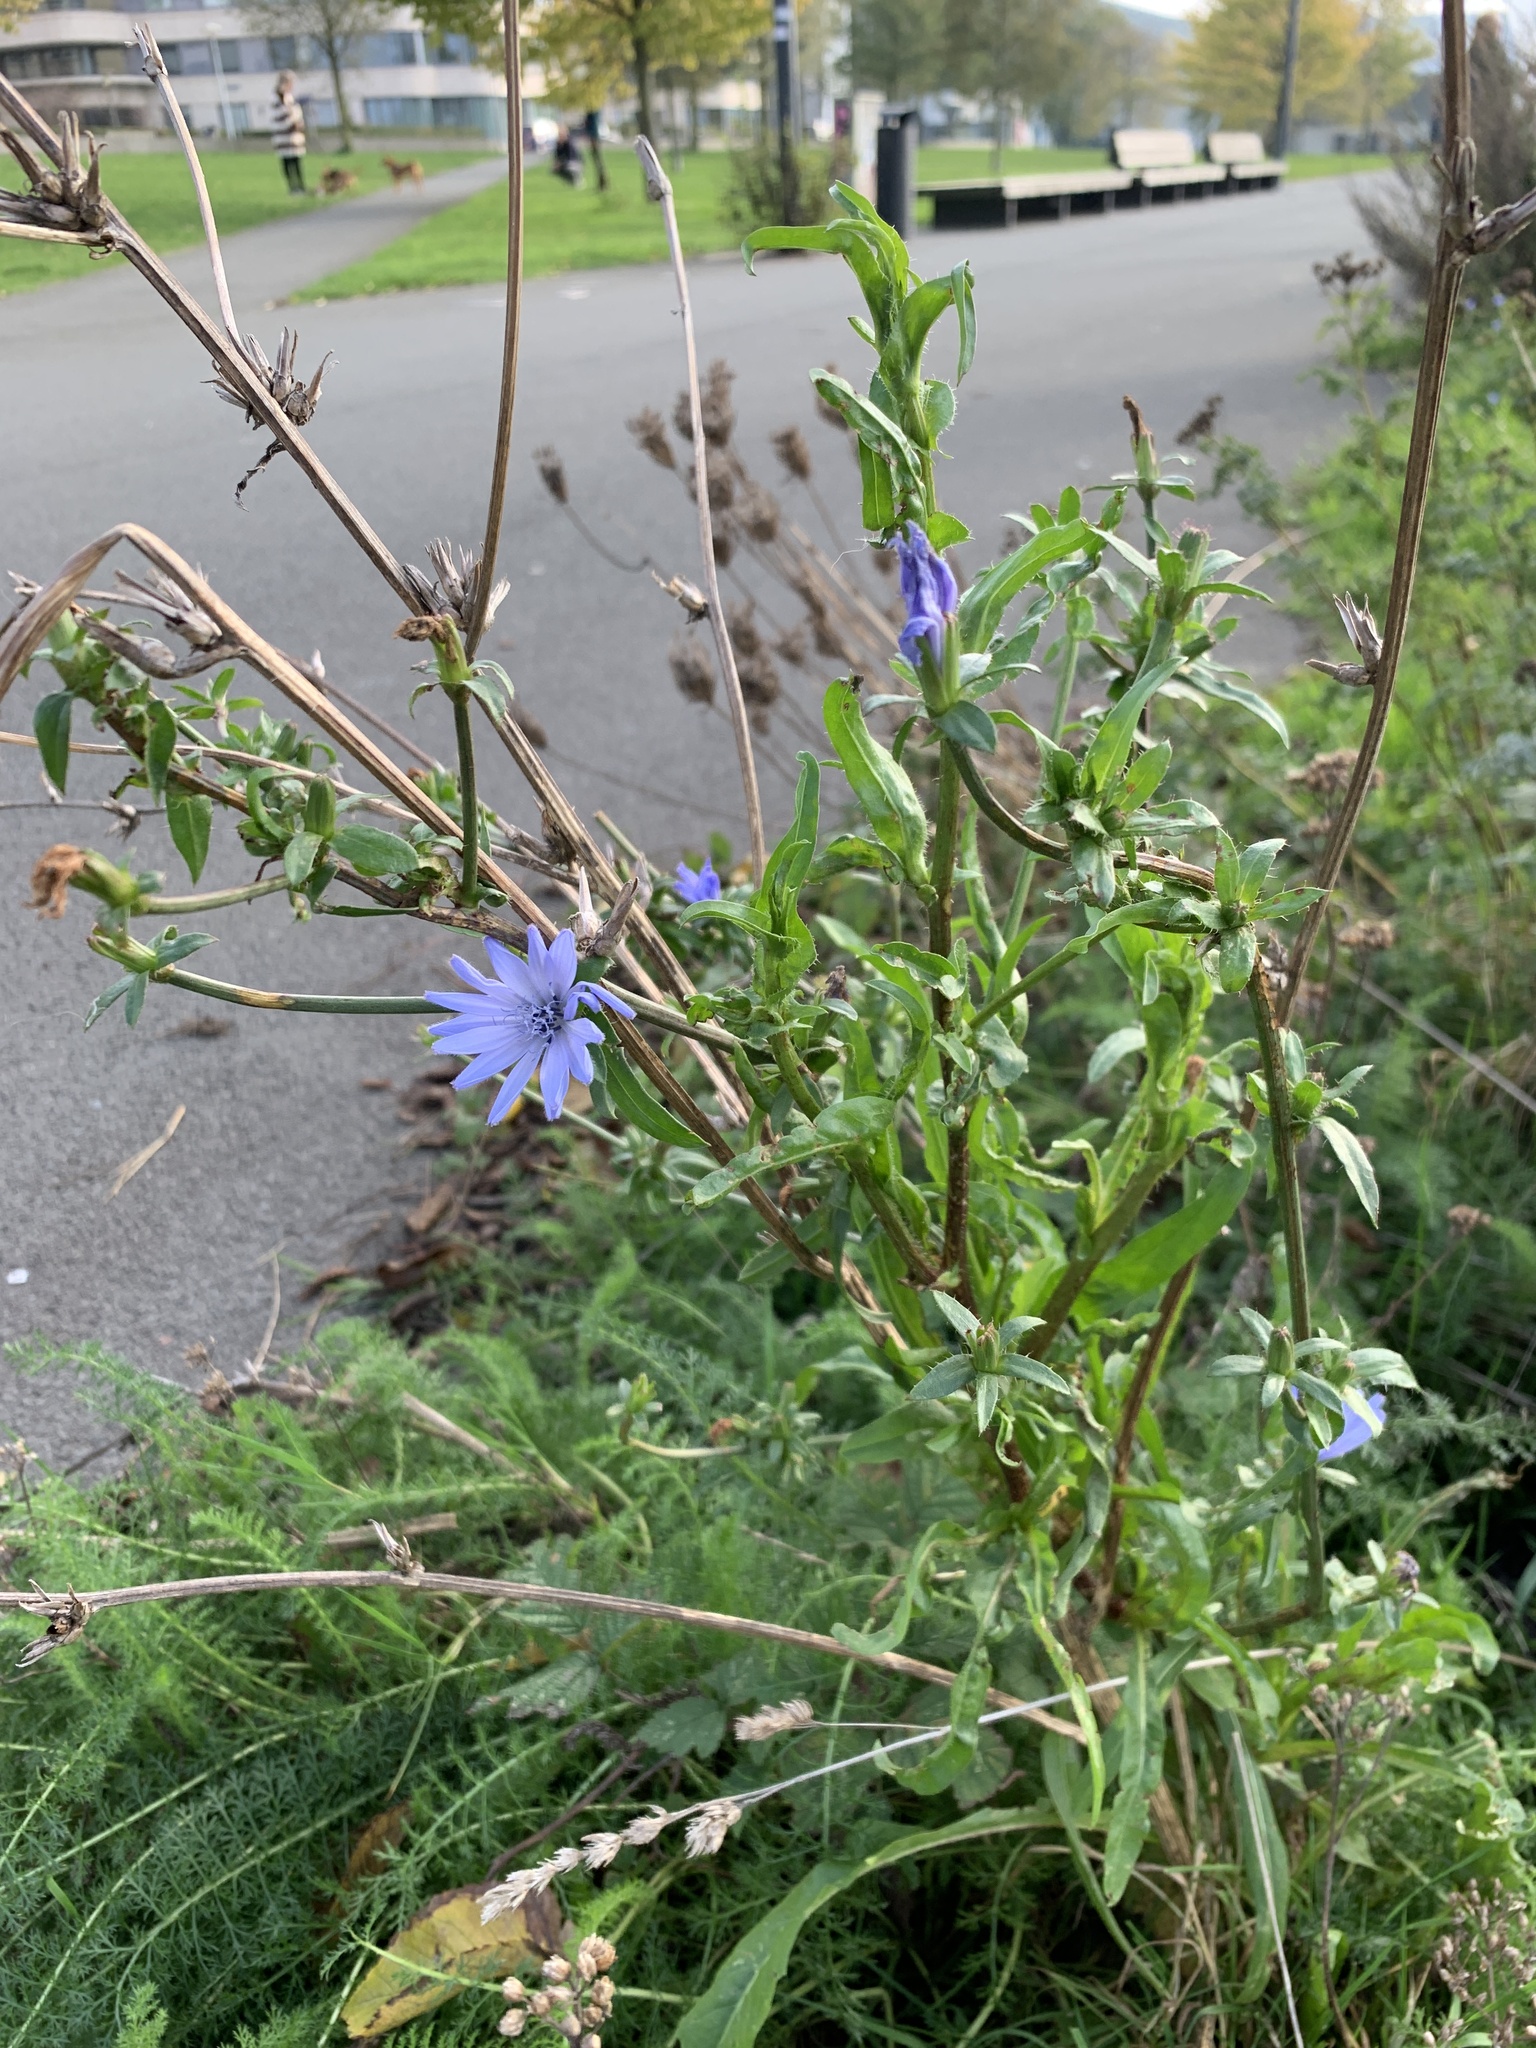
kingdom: Plantae
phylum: Tracheophyta
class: Magnoliopsida
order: Asterales
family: Asteraceae
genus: Cichorium
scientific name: Cichorium intybus
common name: Chicory
